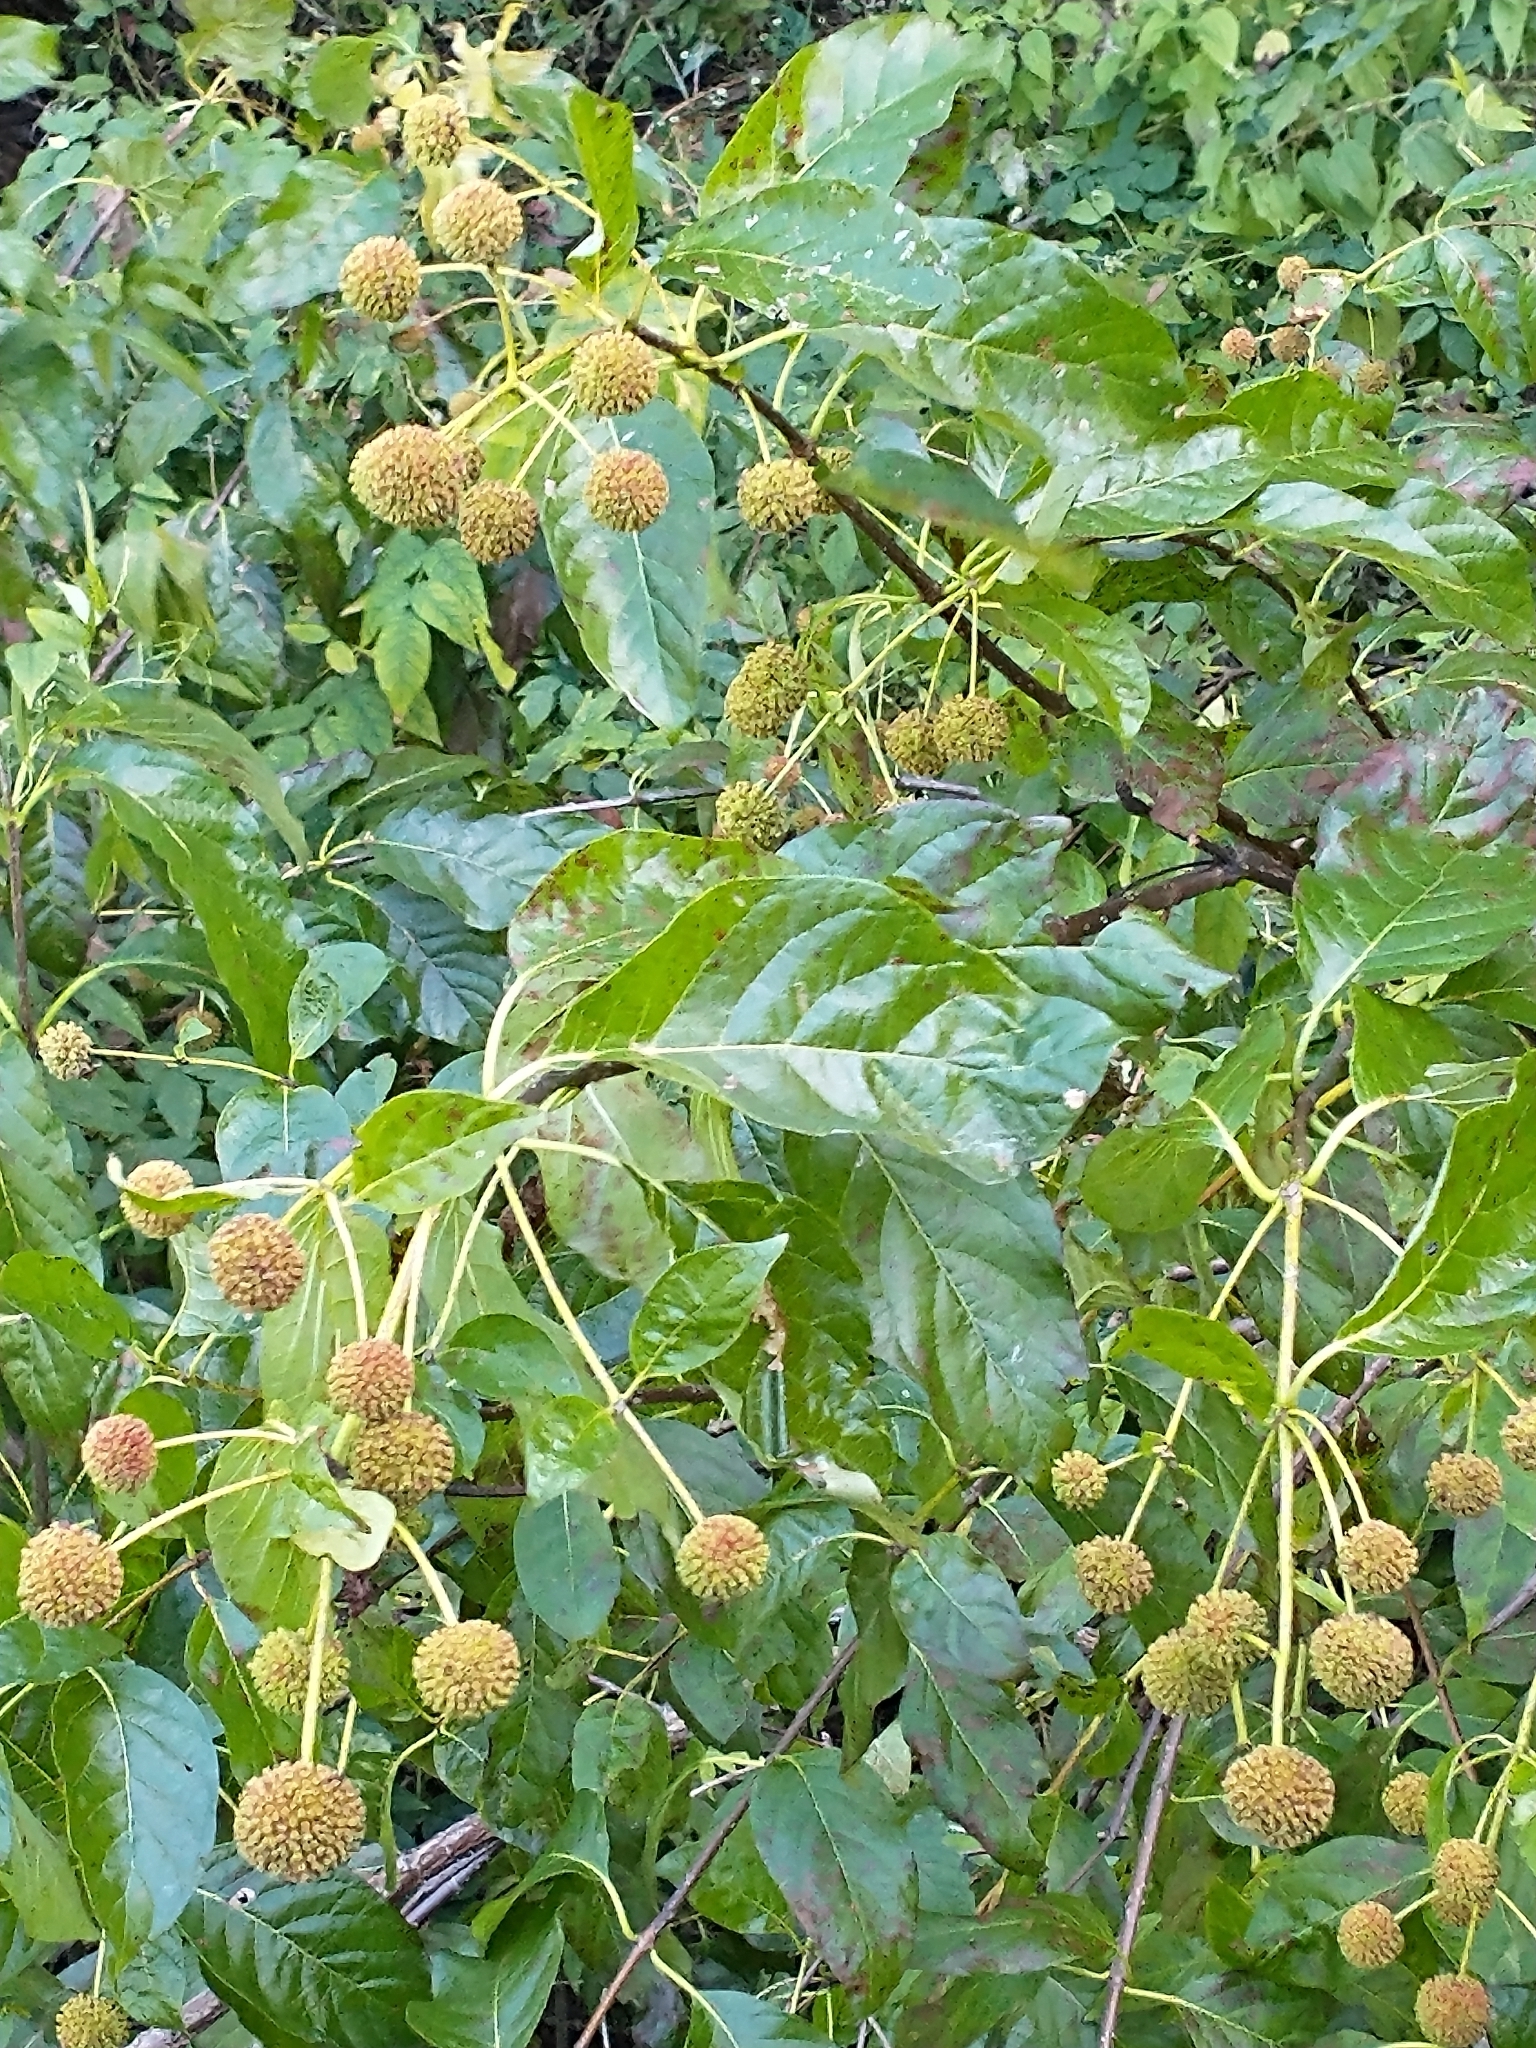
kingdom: Plantae
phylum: Tracheophyta
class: Magnoliopsida
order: Gentianales
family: Rubiaceae
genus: Cephalanthus
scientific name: Cephalanthus occidentalis
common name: Button-willow
